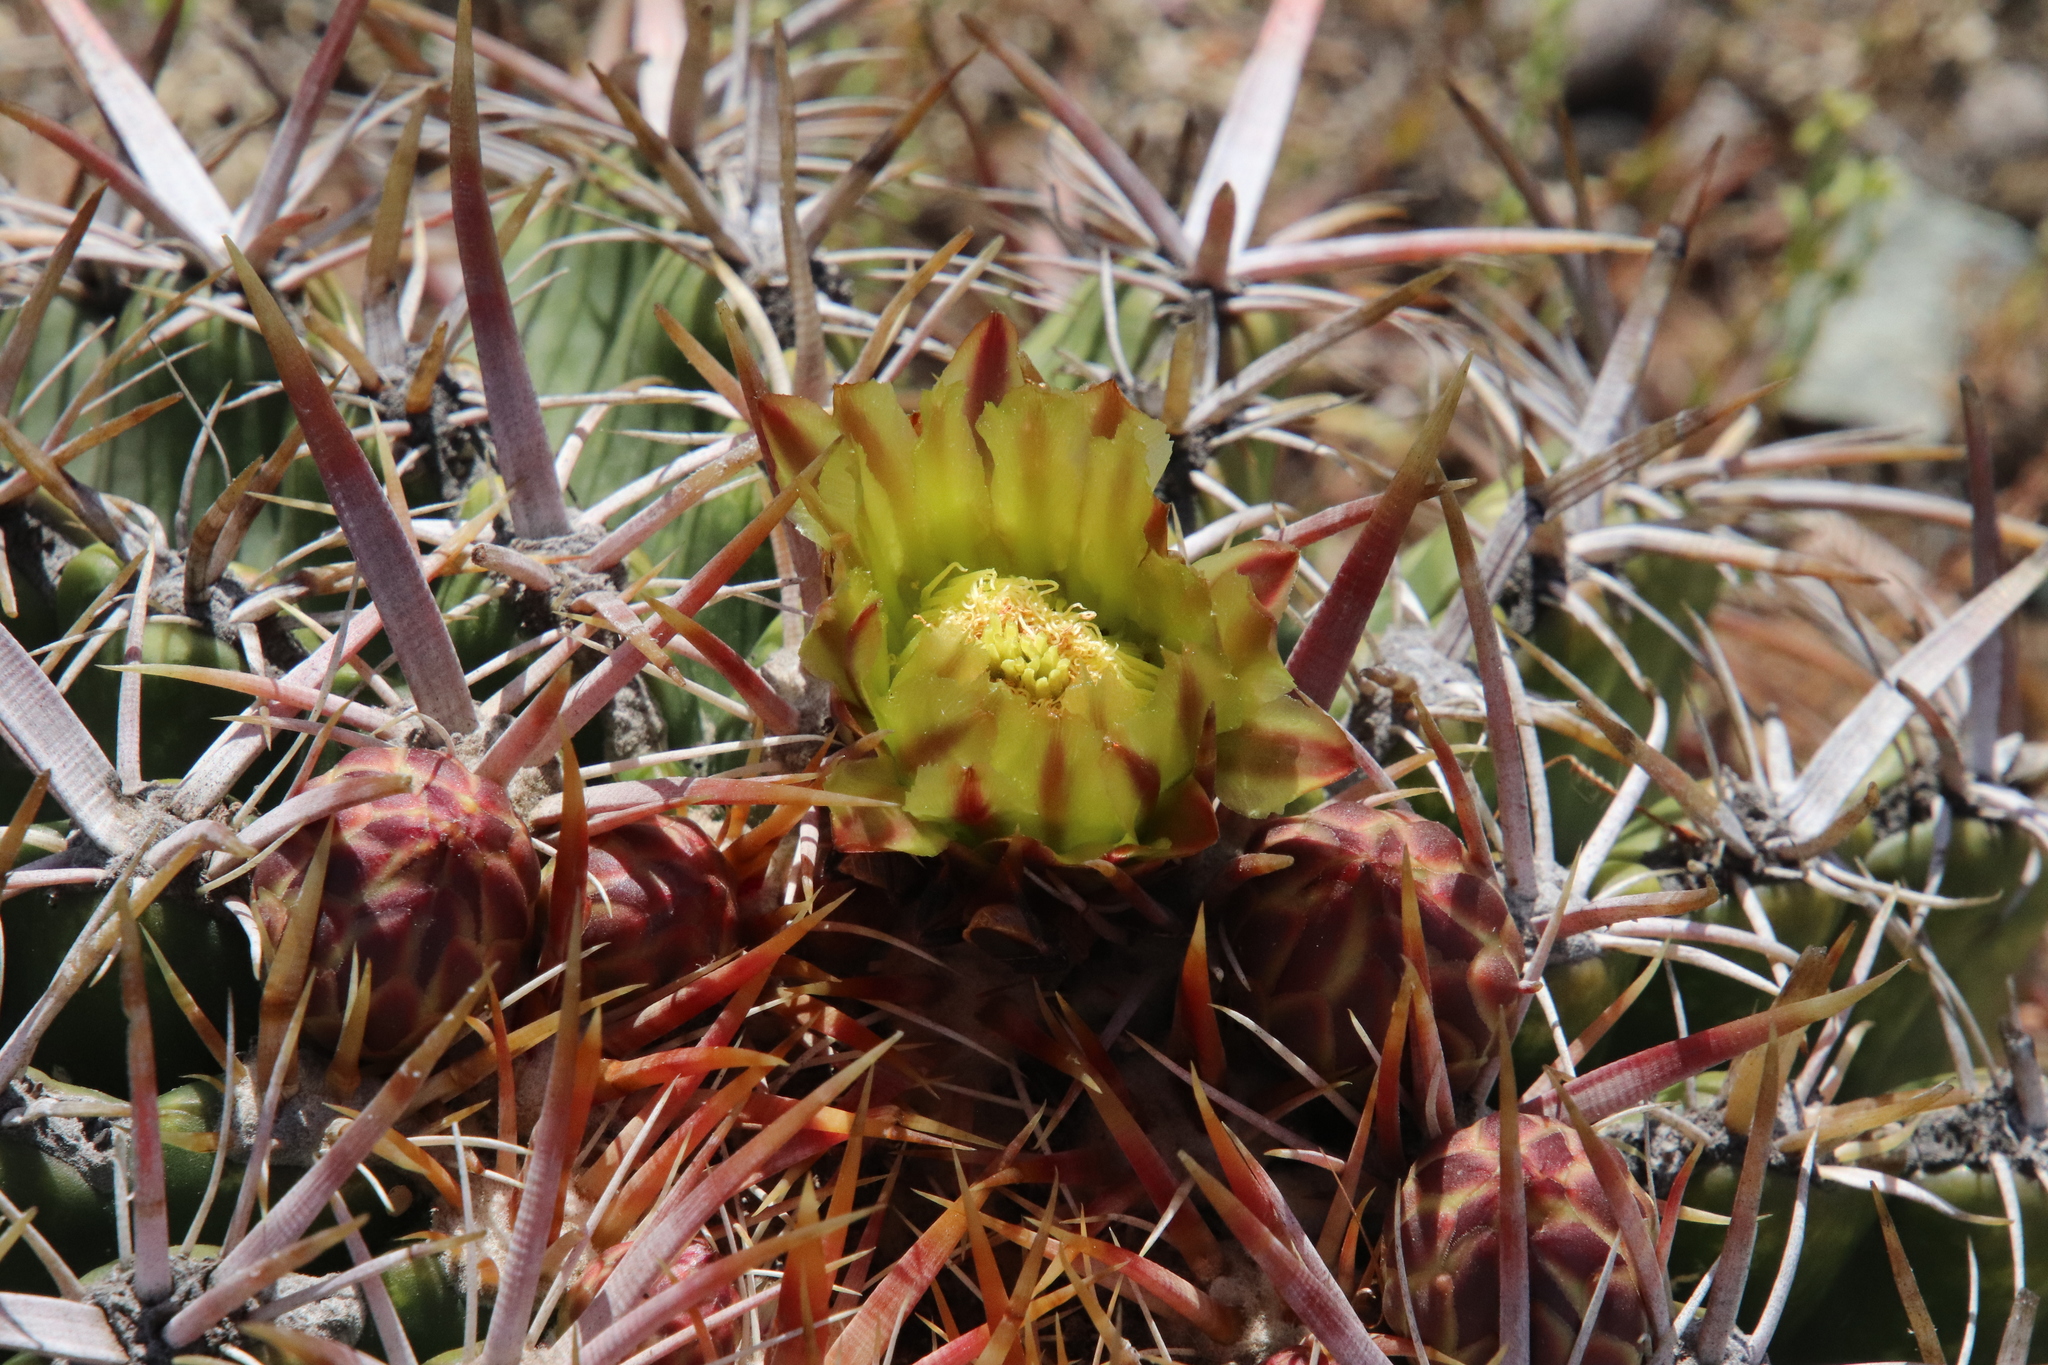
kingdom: Plantae
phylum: Tracheophyta
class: Magnoliopsida
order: Caryophyllales
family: Cactaceae
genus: Ferocactus
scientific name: Ferocactus viridescens
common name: San diego barrel cactus
